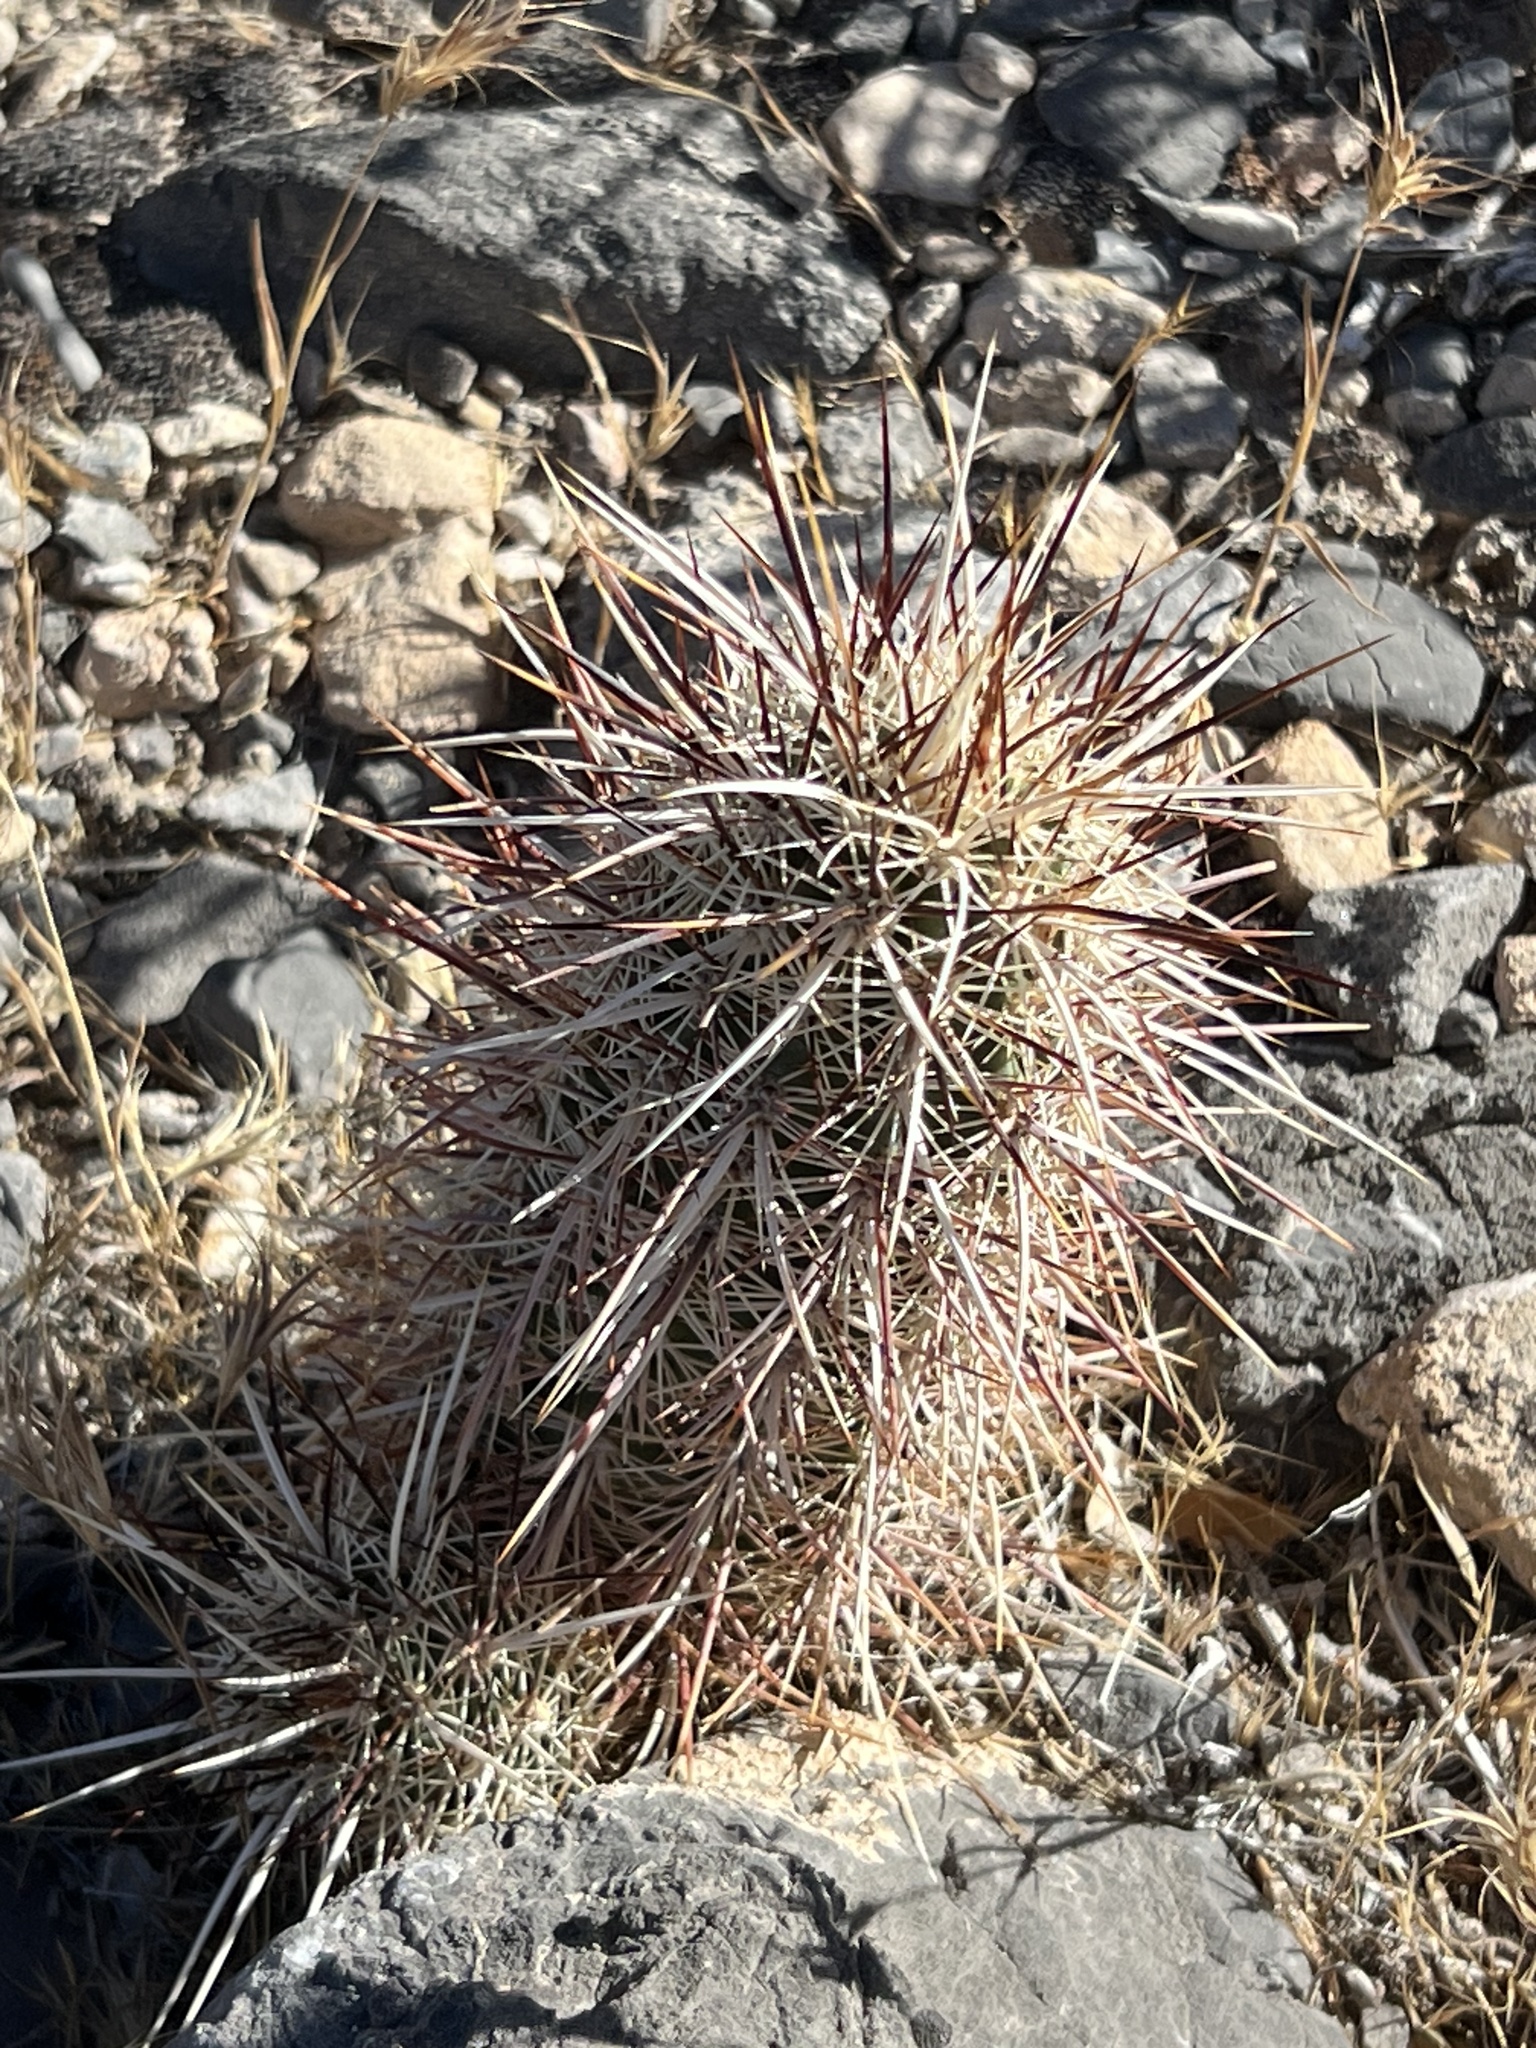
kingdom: Plantae
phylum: Tracheophyta
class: Magnoliopsida
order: Caryophyllales
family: Cactaceae
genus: Echinocereus
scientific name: Echinocereus engelmannii
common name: Engelmann's hedgehog cactus
